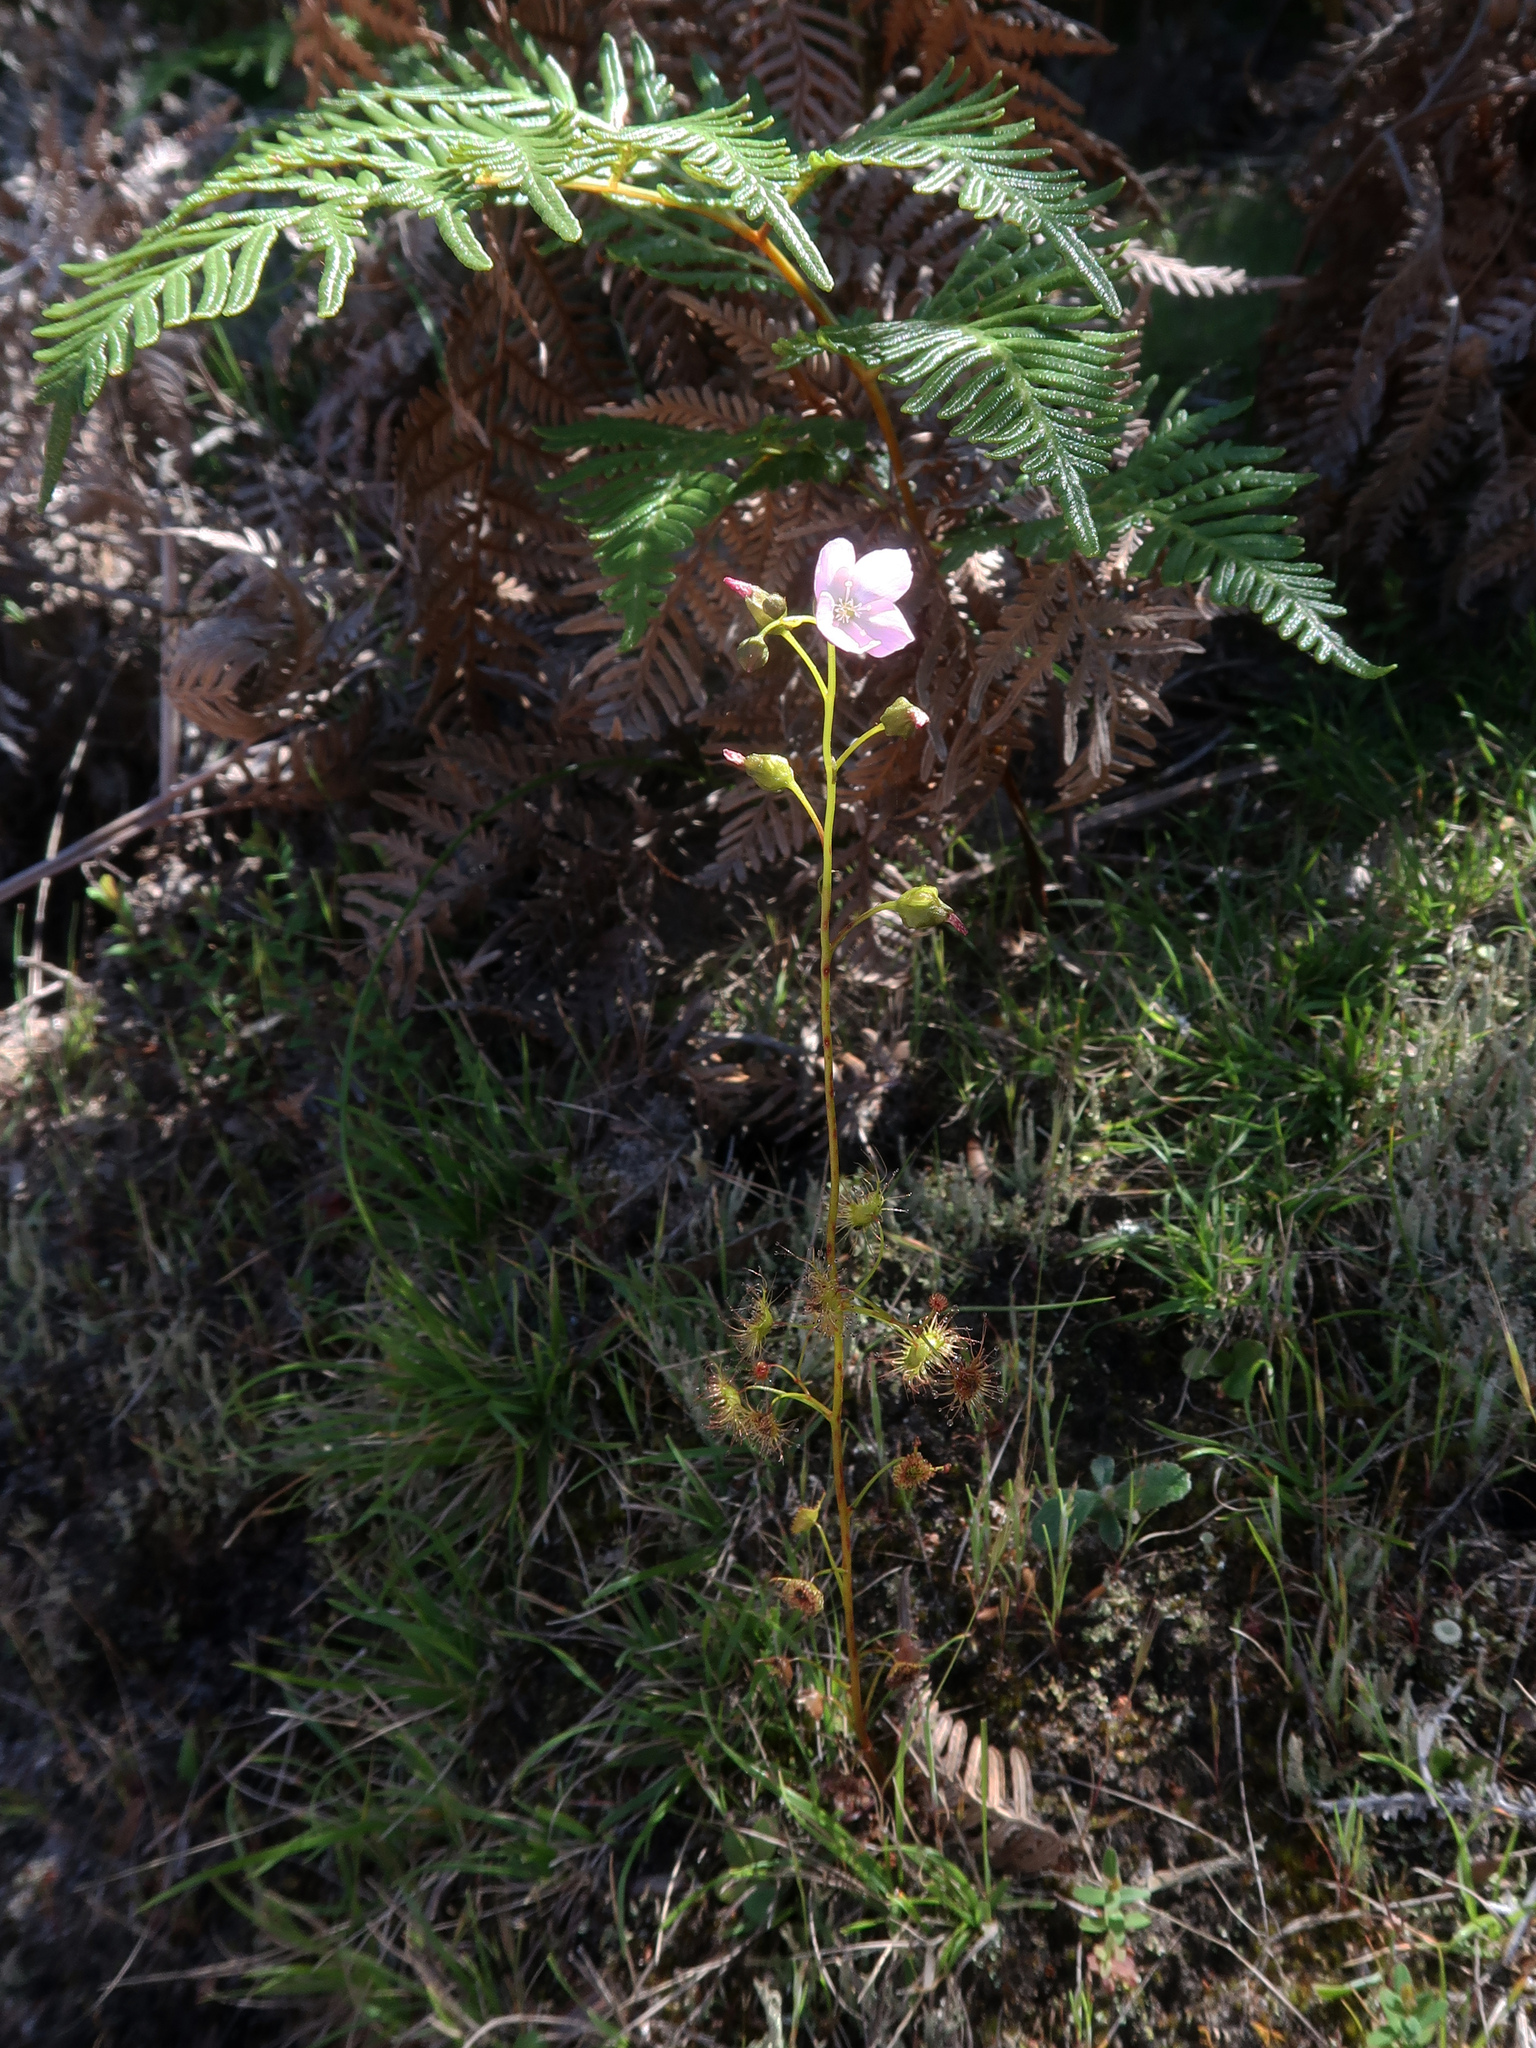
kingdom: Plantae
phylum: Tracheophyta
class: Magnoliopsida
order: Caryophyllales
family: Droseraceae
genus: Drosera
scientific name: Drosera peltata
